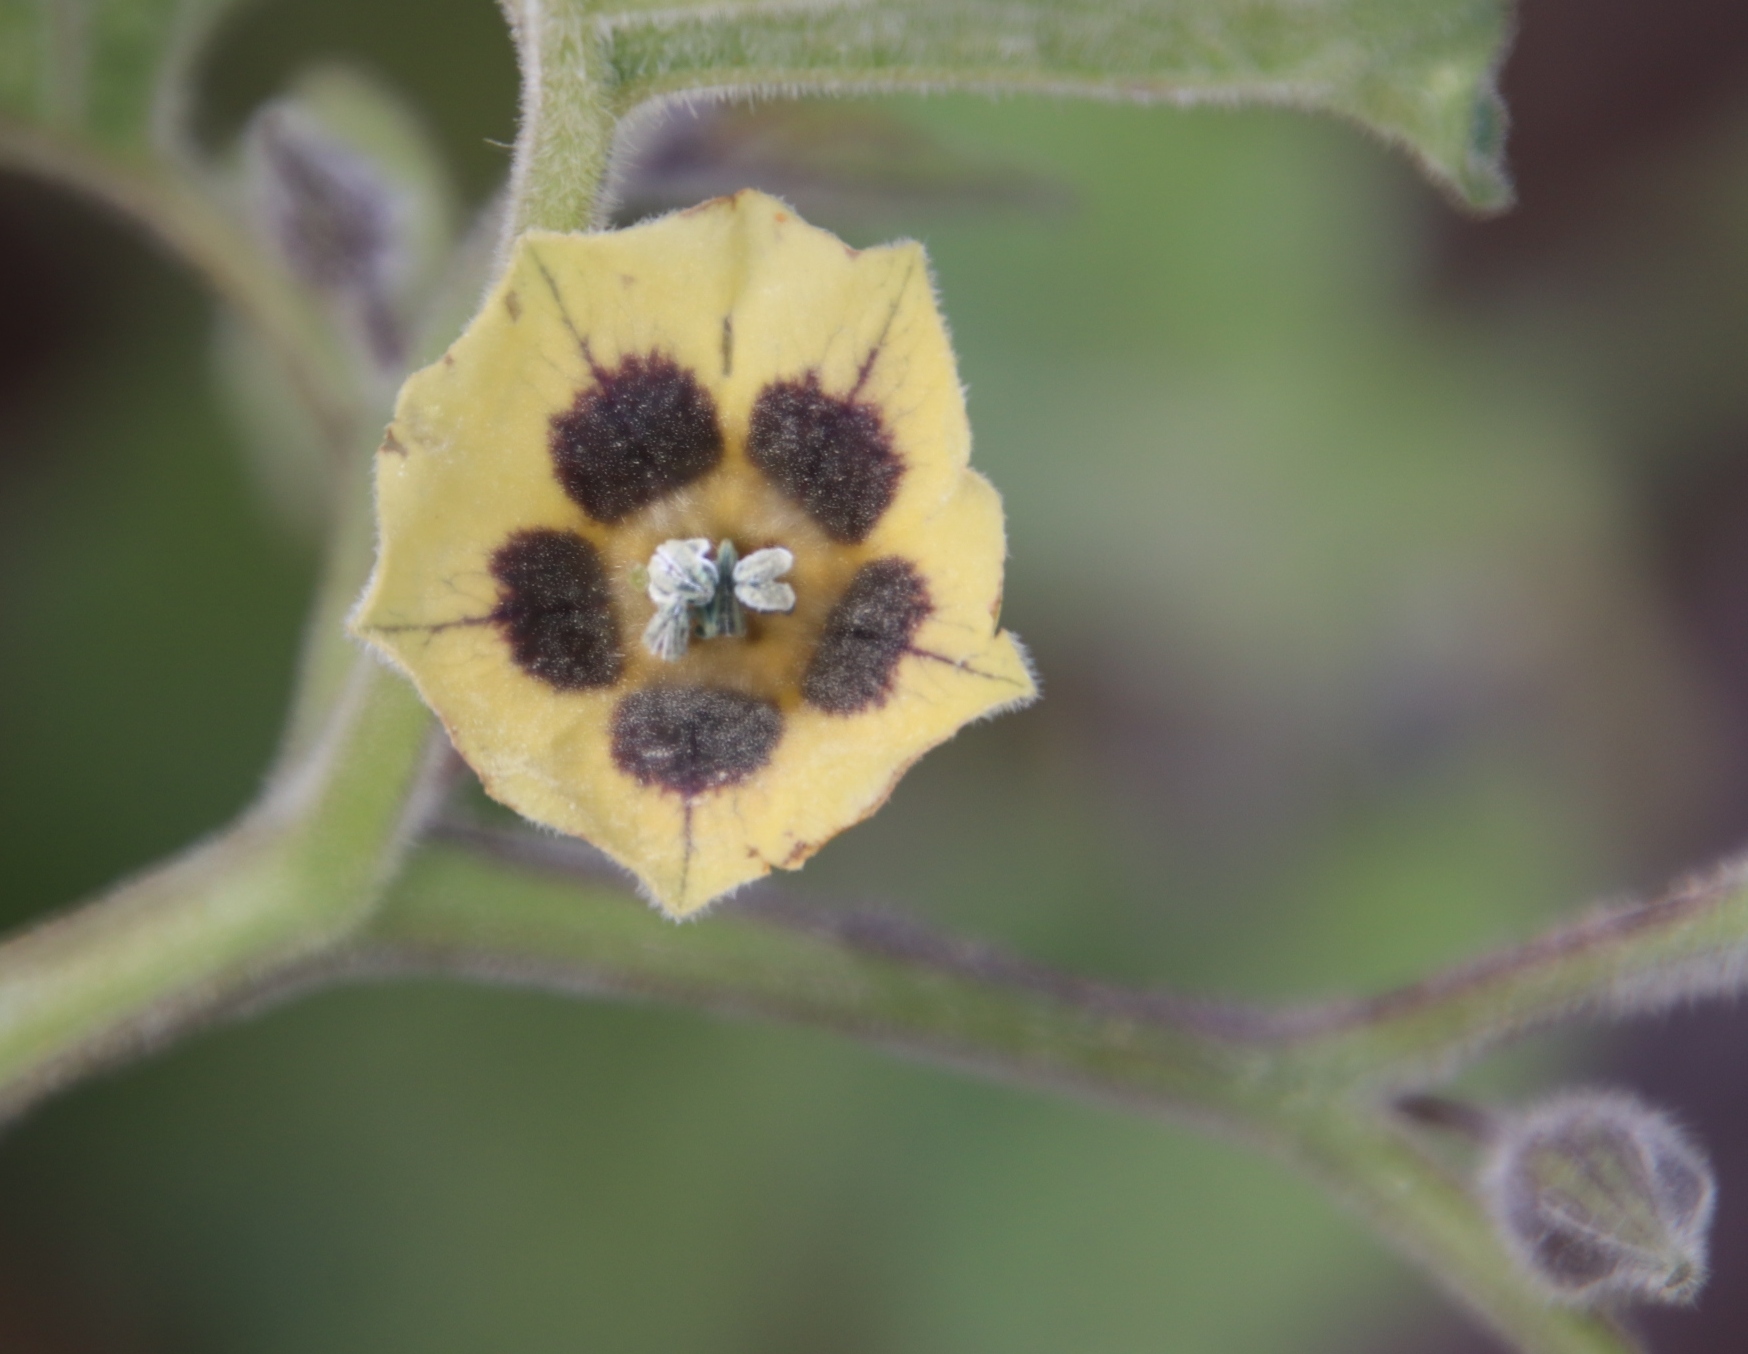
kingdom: Plantae
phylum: Tracheophyta
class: Magnoliopsida
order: Solanales
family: Solanaceae
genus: Physalis
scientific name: Physalis peruviana
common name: Cape-gooseberry
